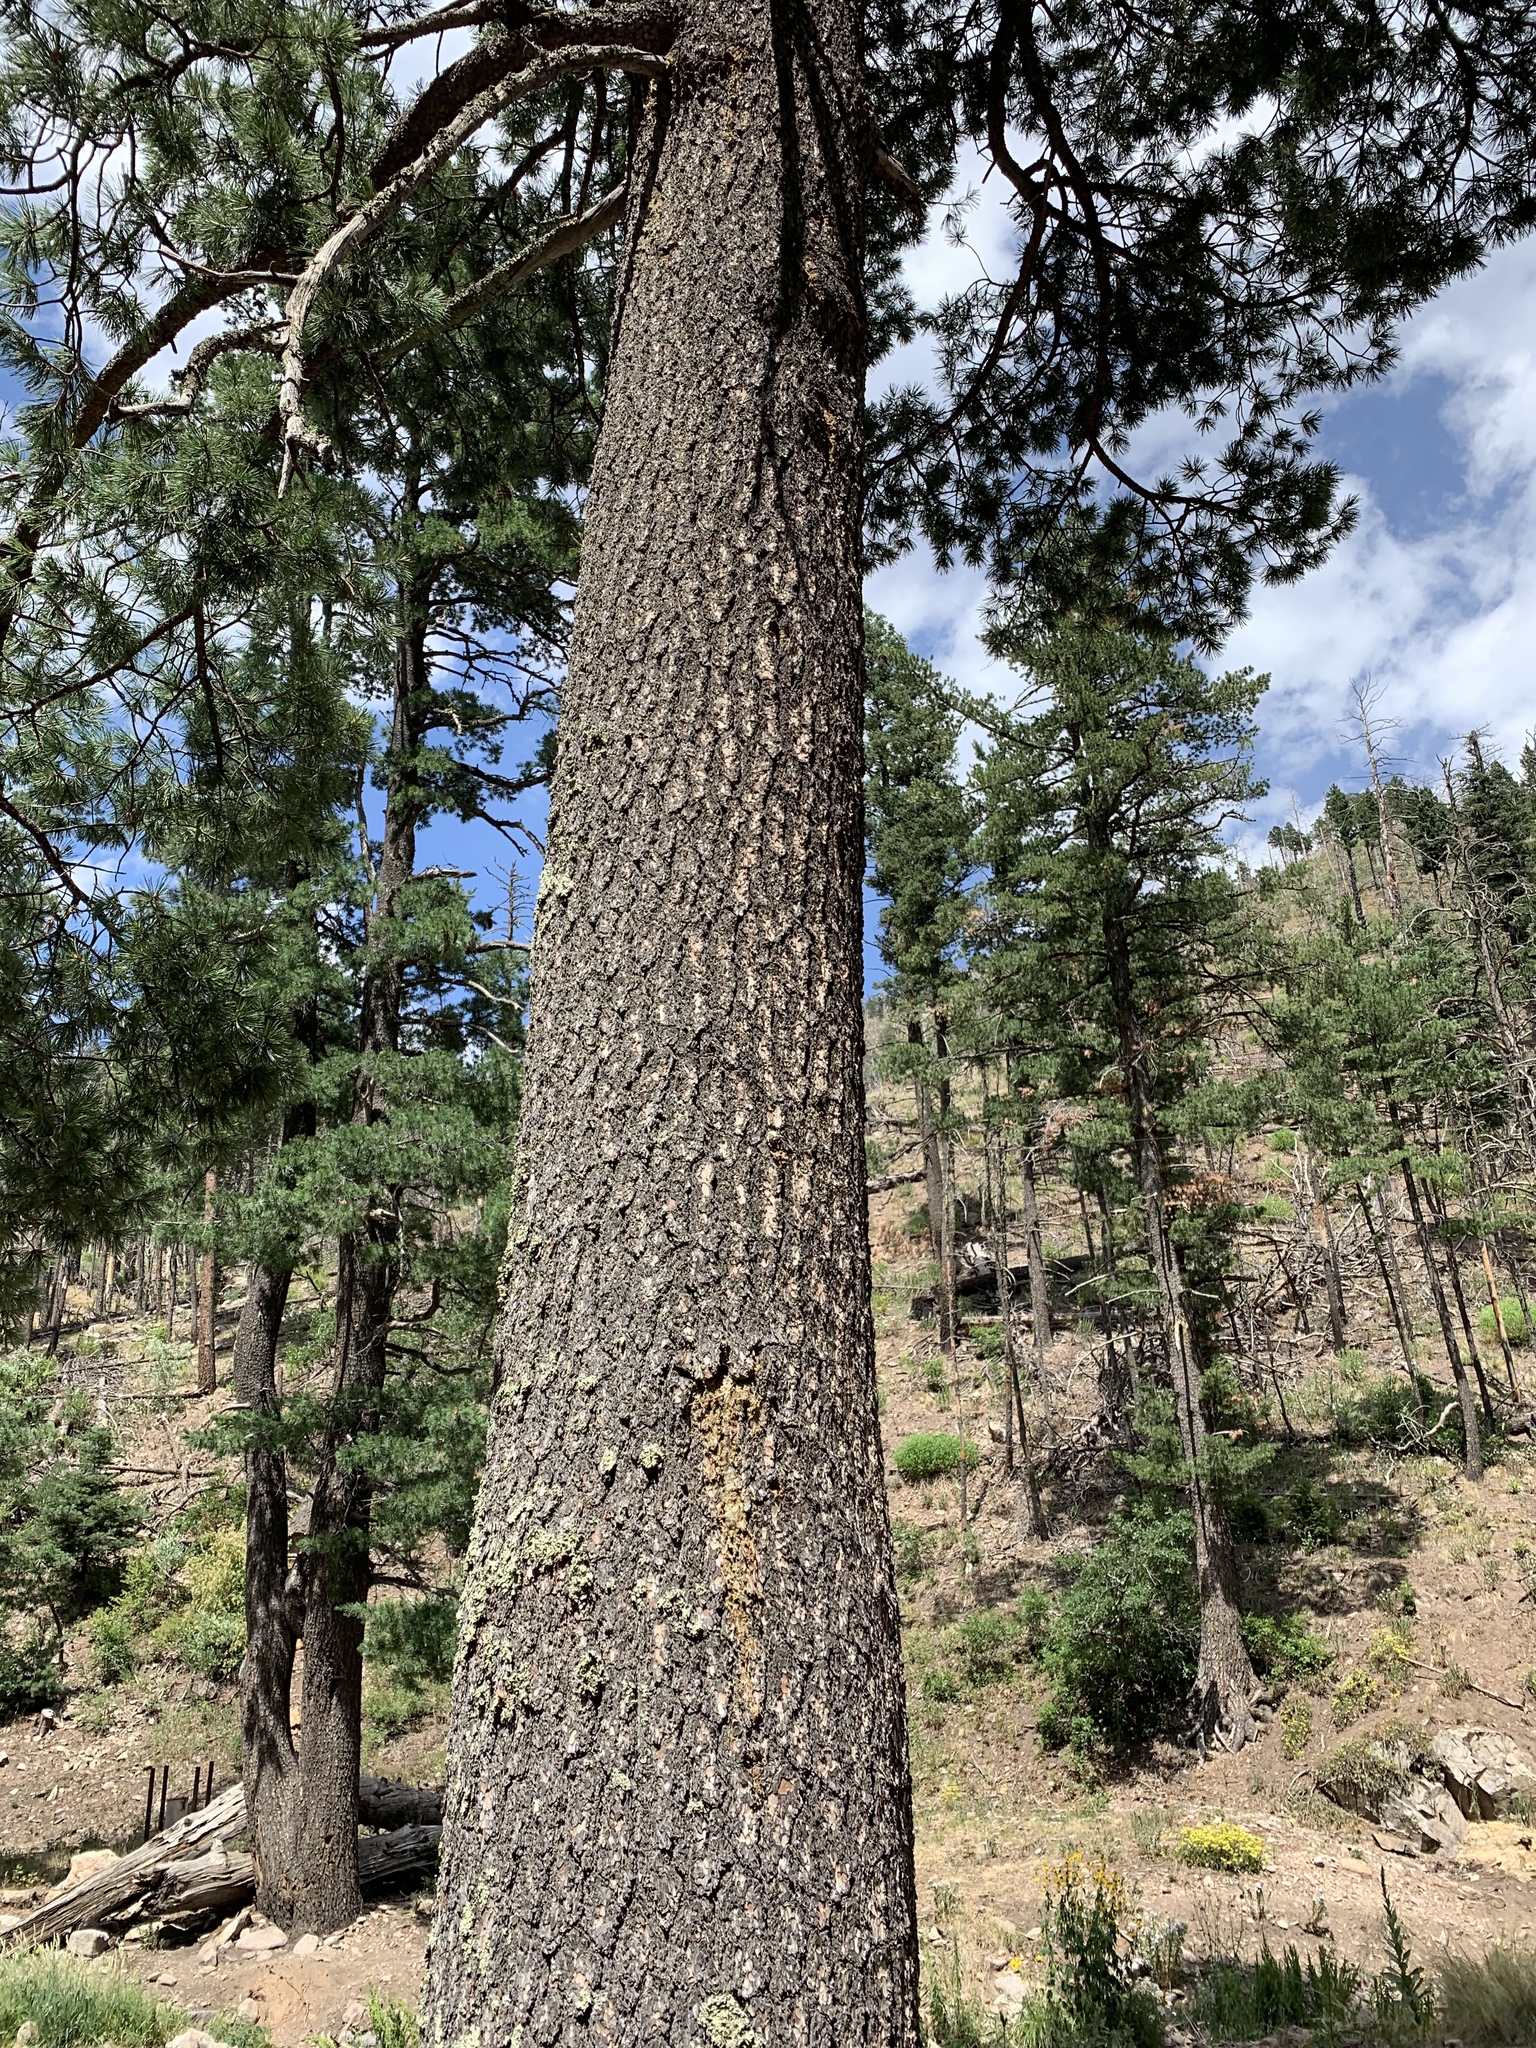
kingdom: Plantae
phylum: Tracheophyta
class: Pinopsida
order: Pinales
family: Pinaceae
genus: Pinus
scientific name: Pinus strobiformis
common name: Southwestern white pine
